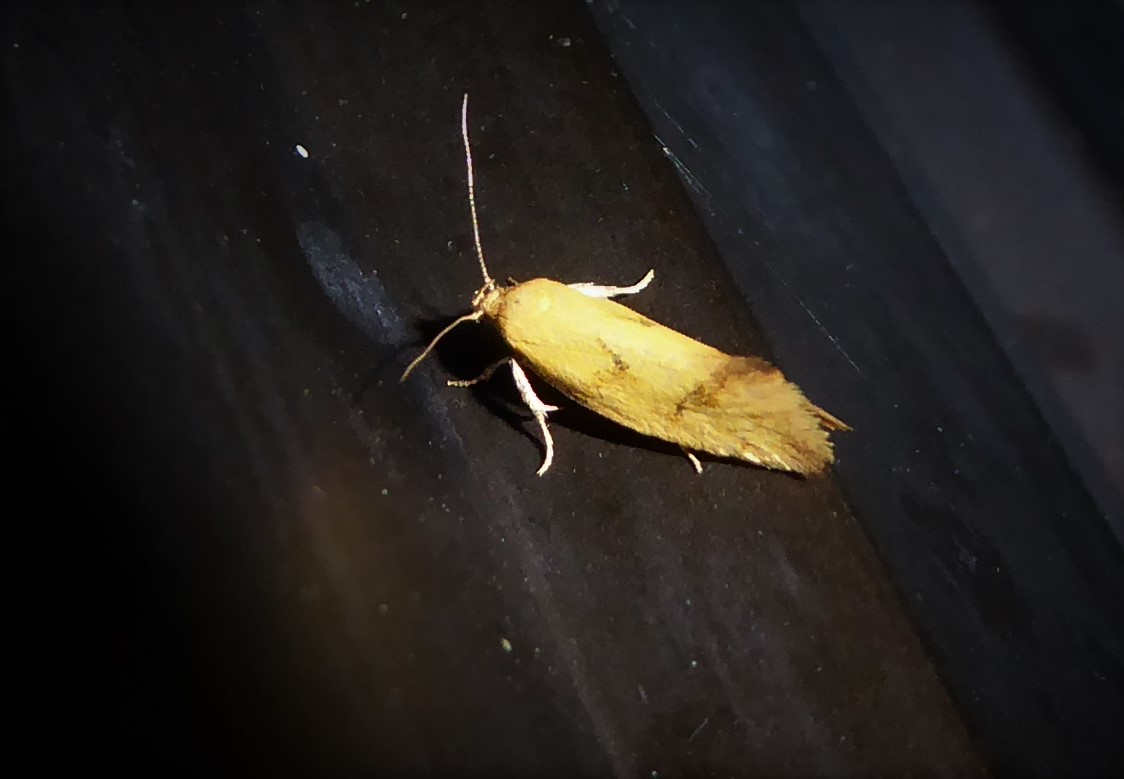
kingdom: Animalia
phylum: Arthropoda
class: Insecta
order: Lepidoptera
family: Oecophoridae
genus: Tingena
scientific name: Tingena actinias
